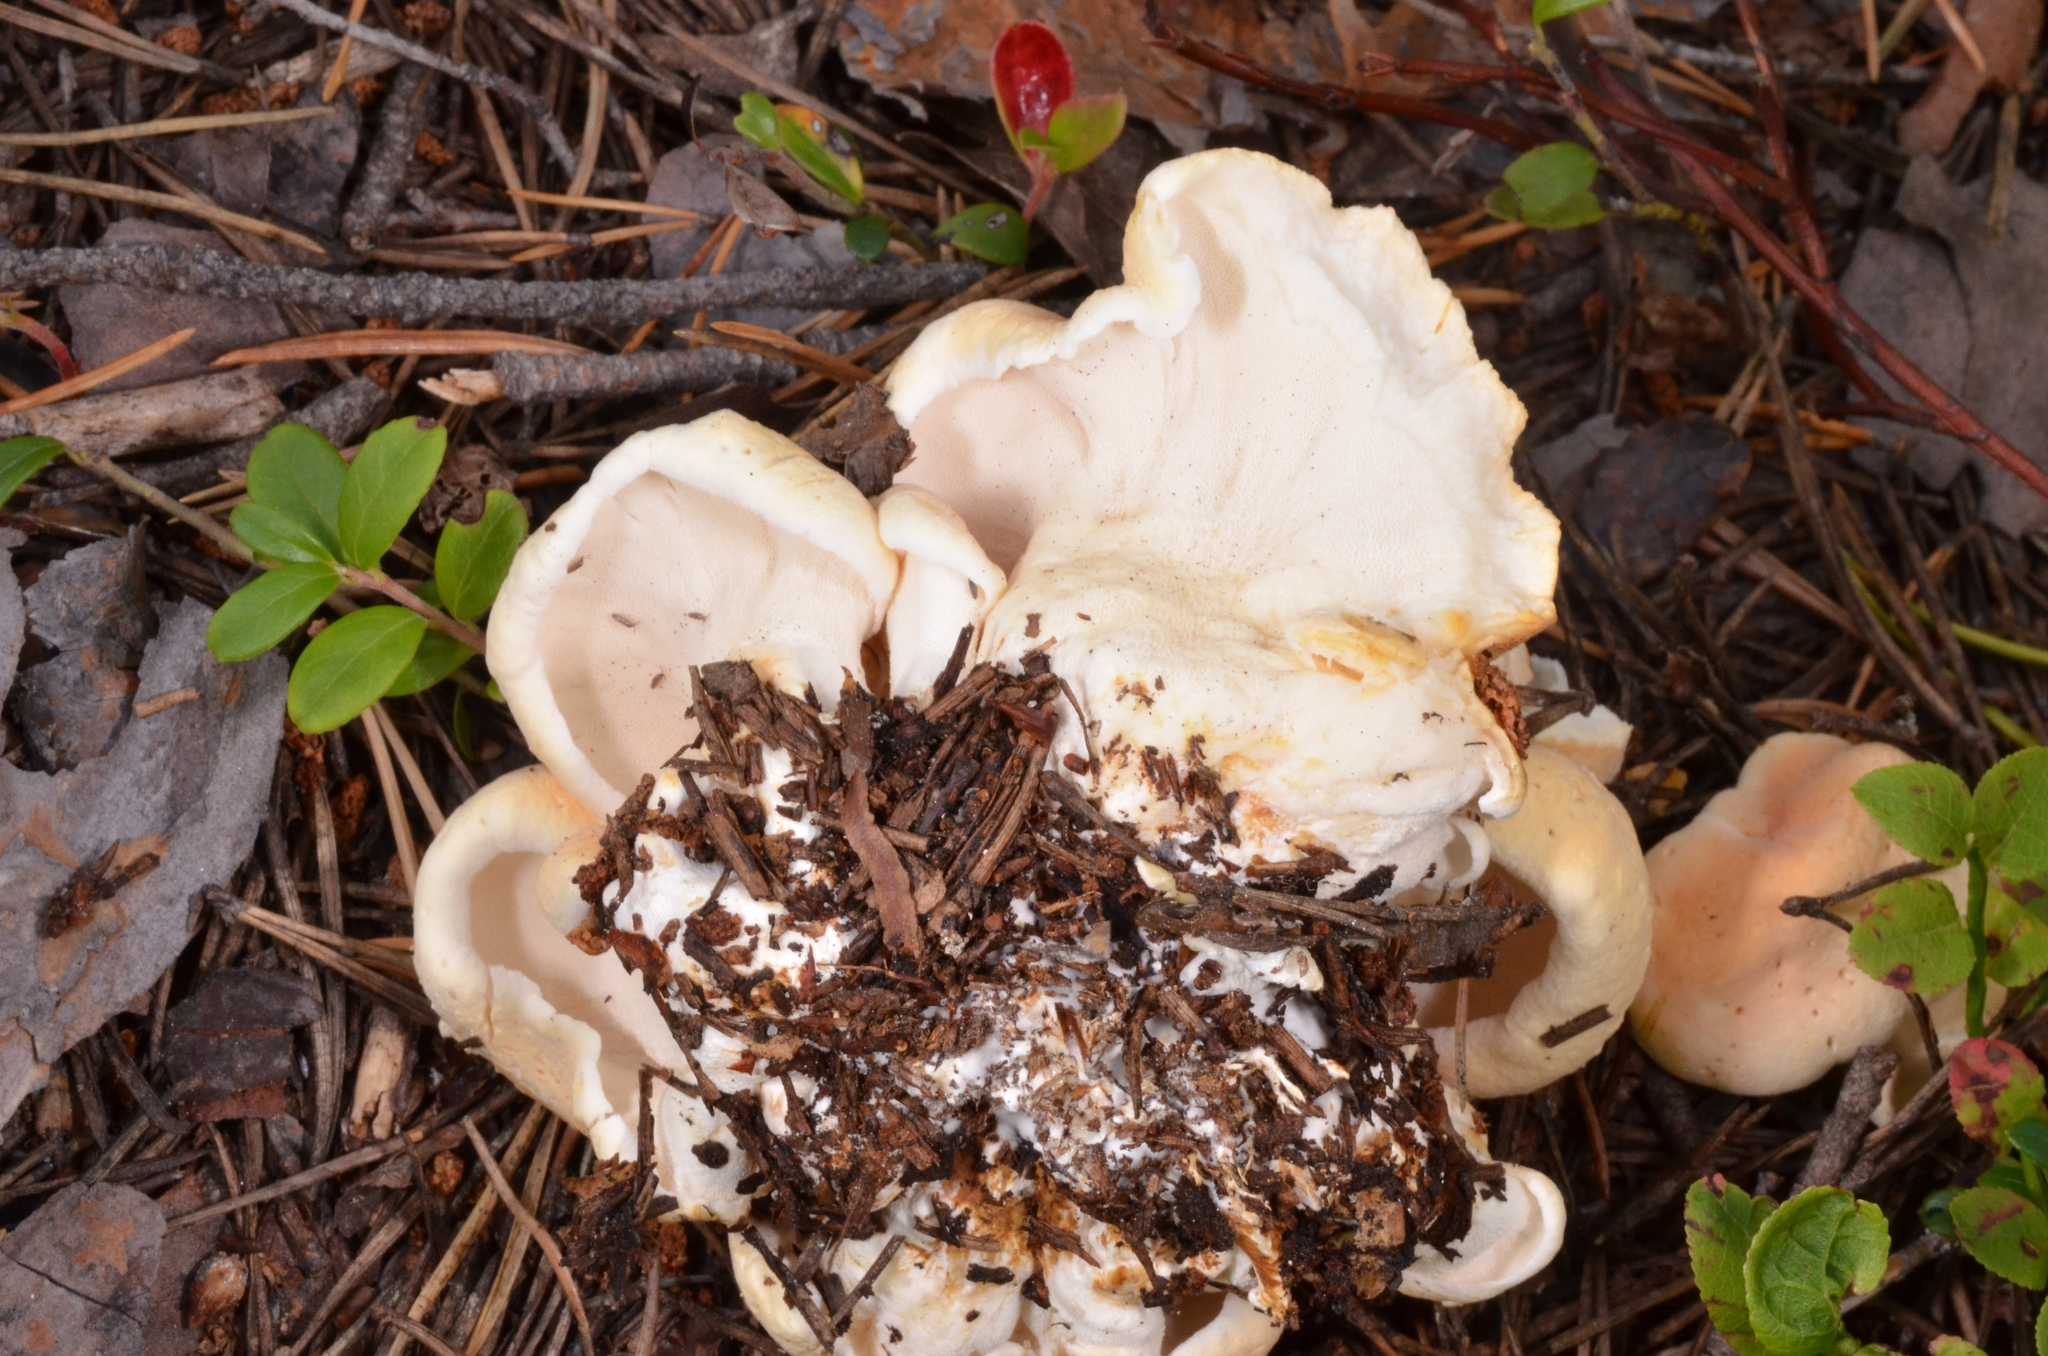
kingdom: Fungi
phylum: Basidiomycota
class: Agaricomycetes
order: Russulales
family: Albatrellaceae
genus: Albatrellopsis
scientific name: Albatrellopsis confluens
